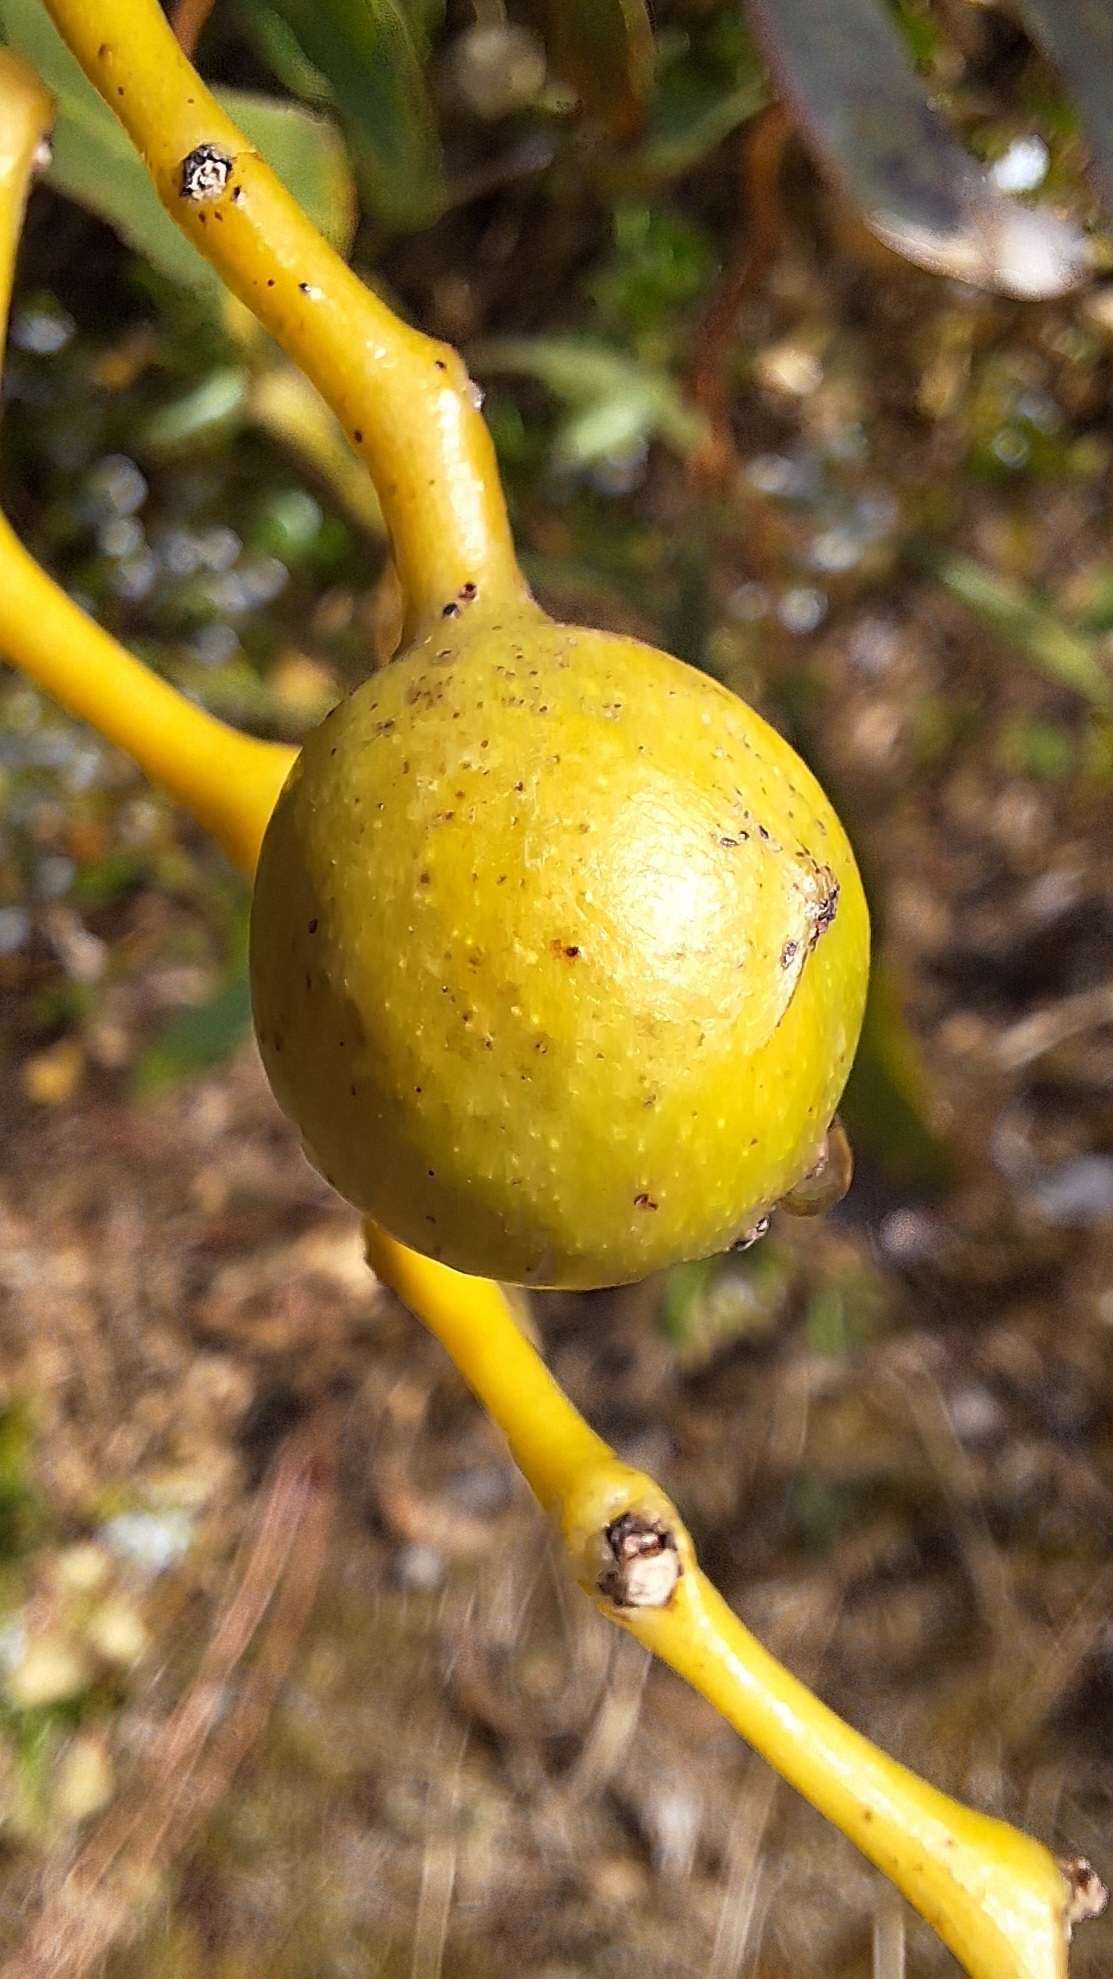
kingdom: Animalia
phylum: Arthropoda
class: Insecta
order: Hymenoptera
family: Pteromalidae
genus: Trichilogaster
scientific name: Trichilogaster signiventris
